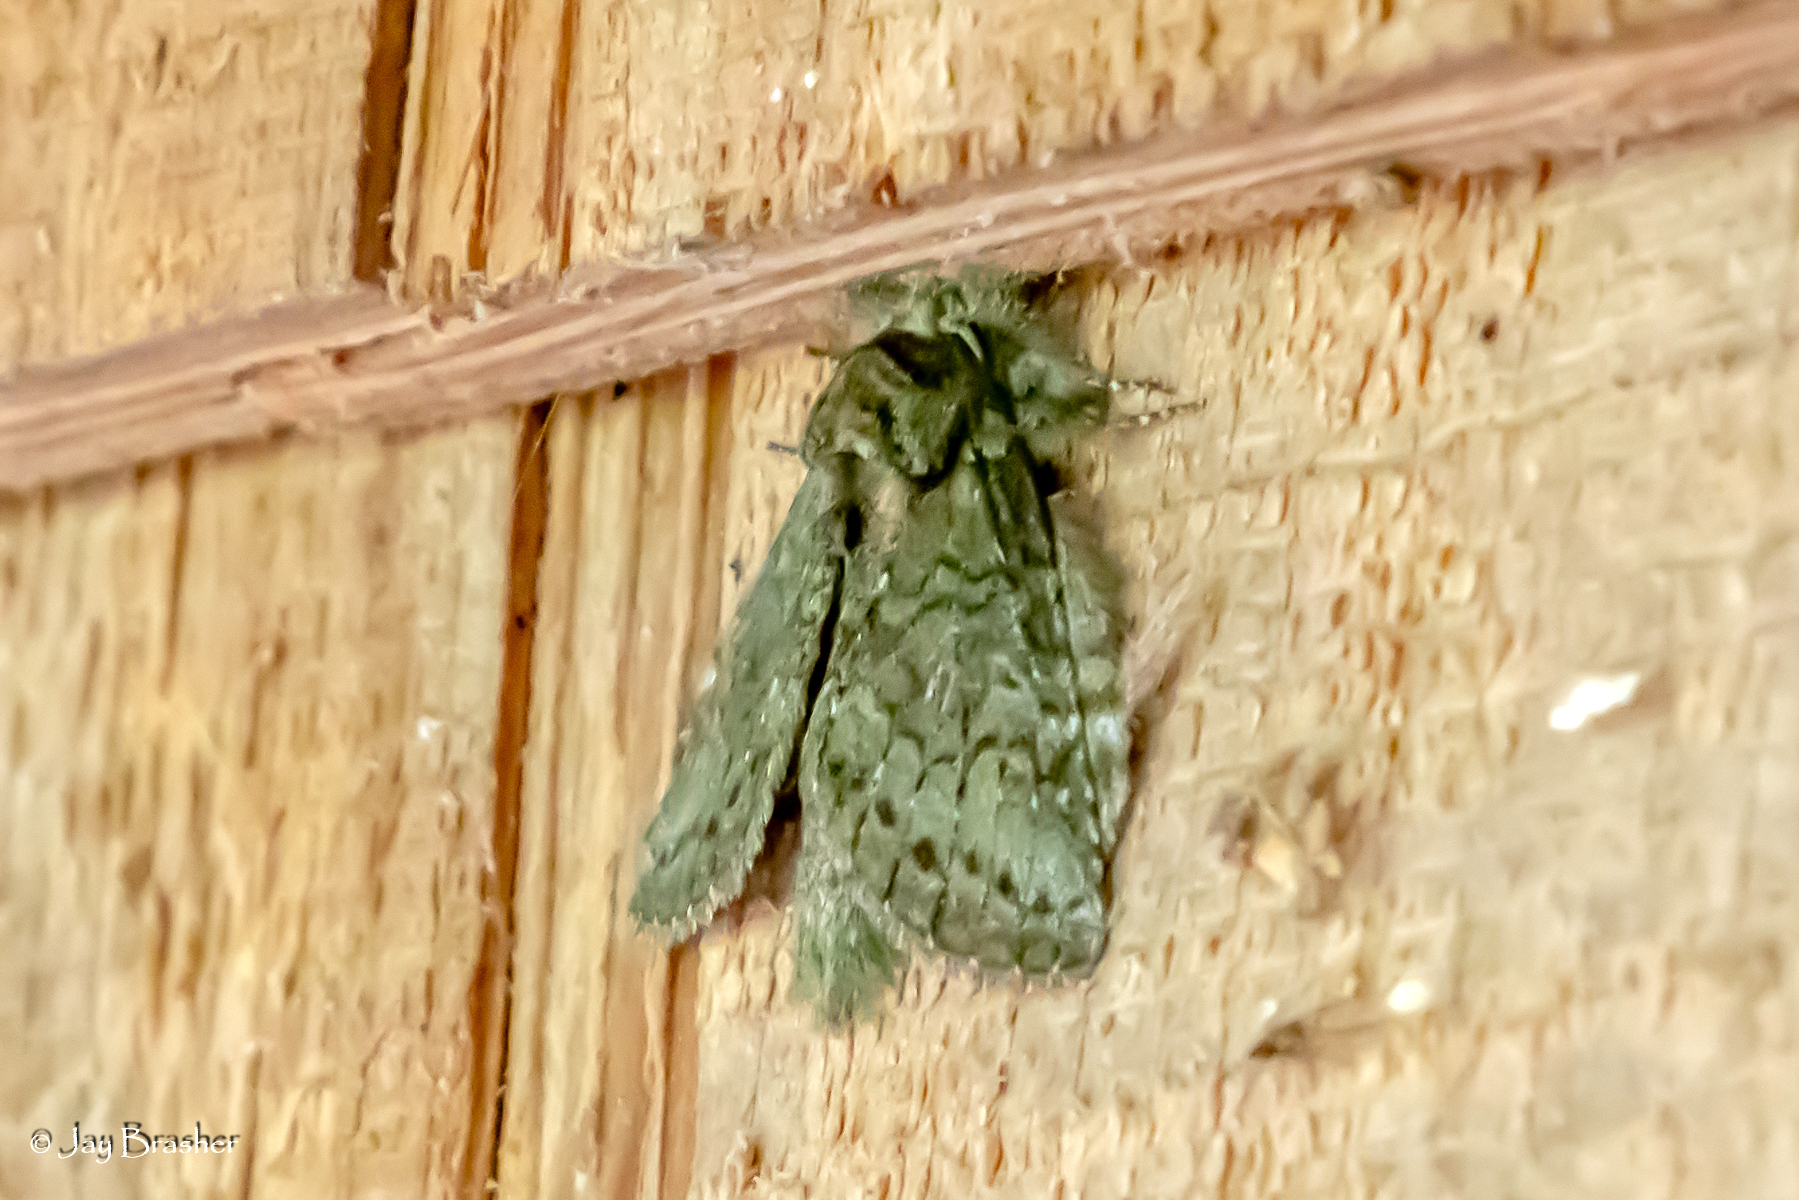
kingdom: Animalia
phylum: Arthropoda
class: Insecta
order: Lepidoptera
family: Notodontidae
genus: Disphragis
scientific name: Disphragis Cecrita guttivitta
